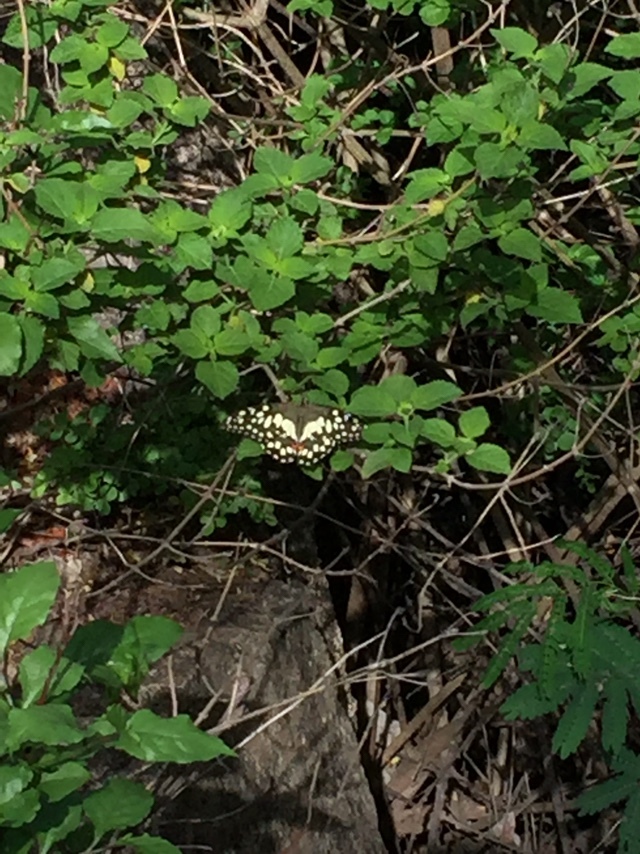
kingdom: Animalia
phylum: Arthropoda
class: Insecta
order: Lepidoptera
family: Papilionidae
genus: Papilio
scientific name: Papilio demoleus
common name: Lime butterfly
